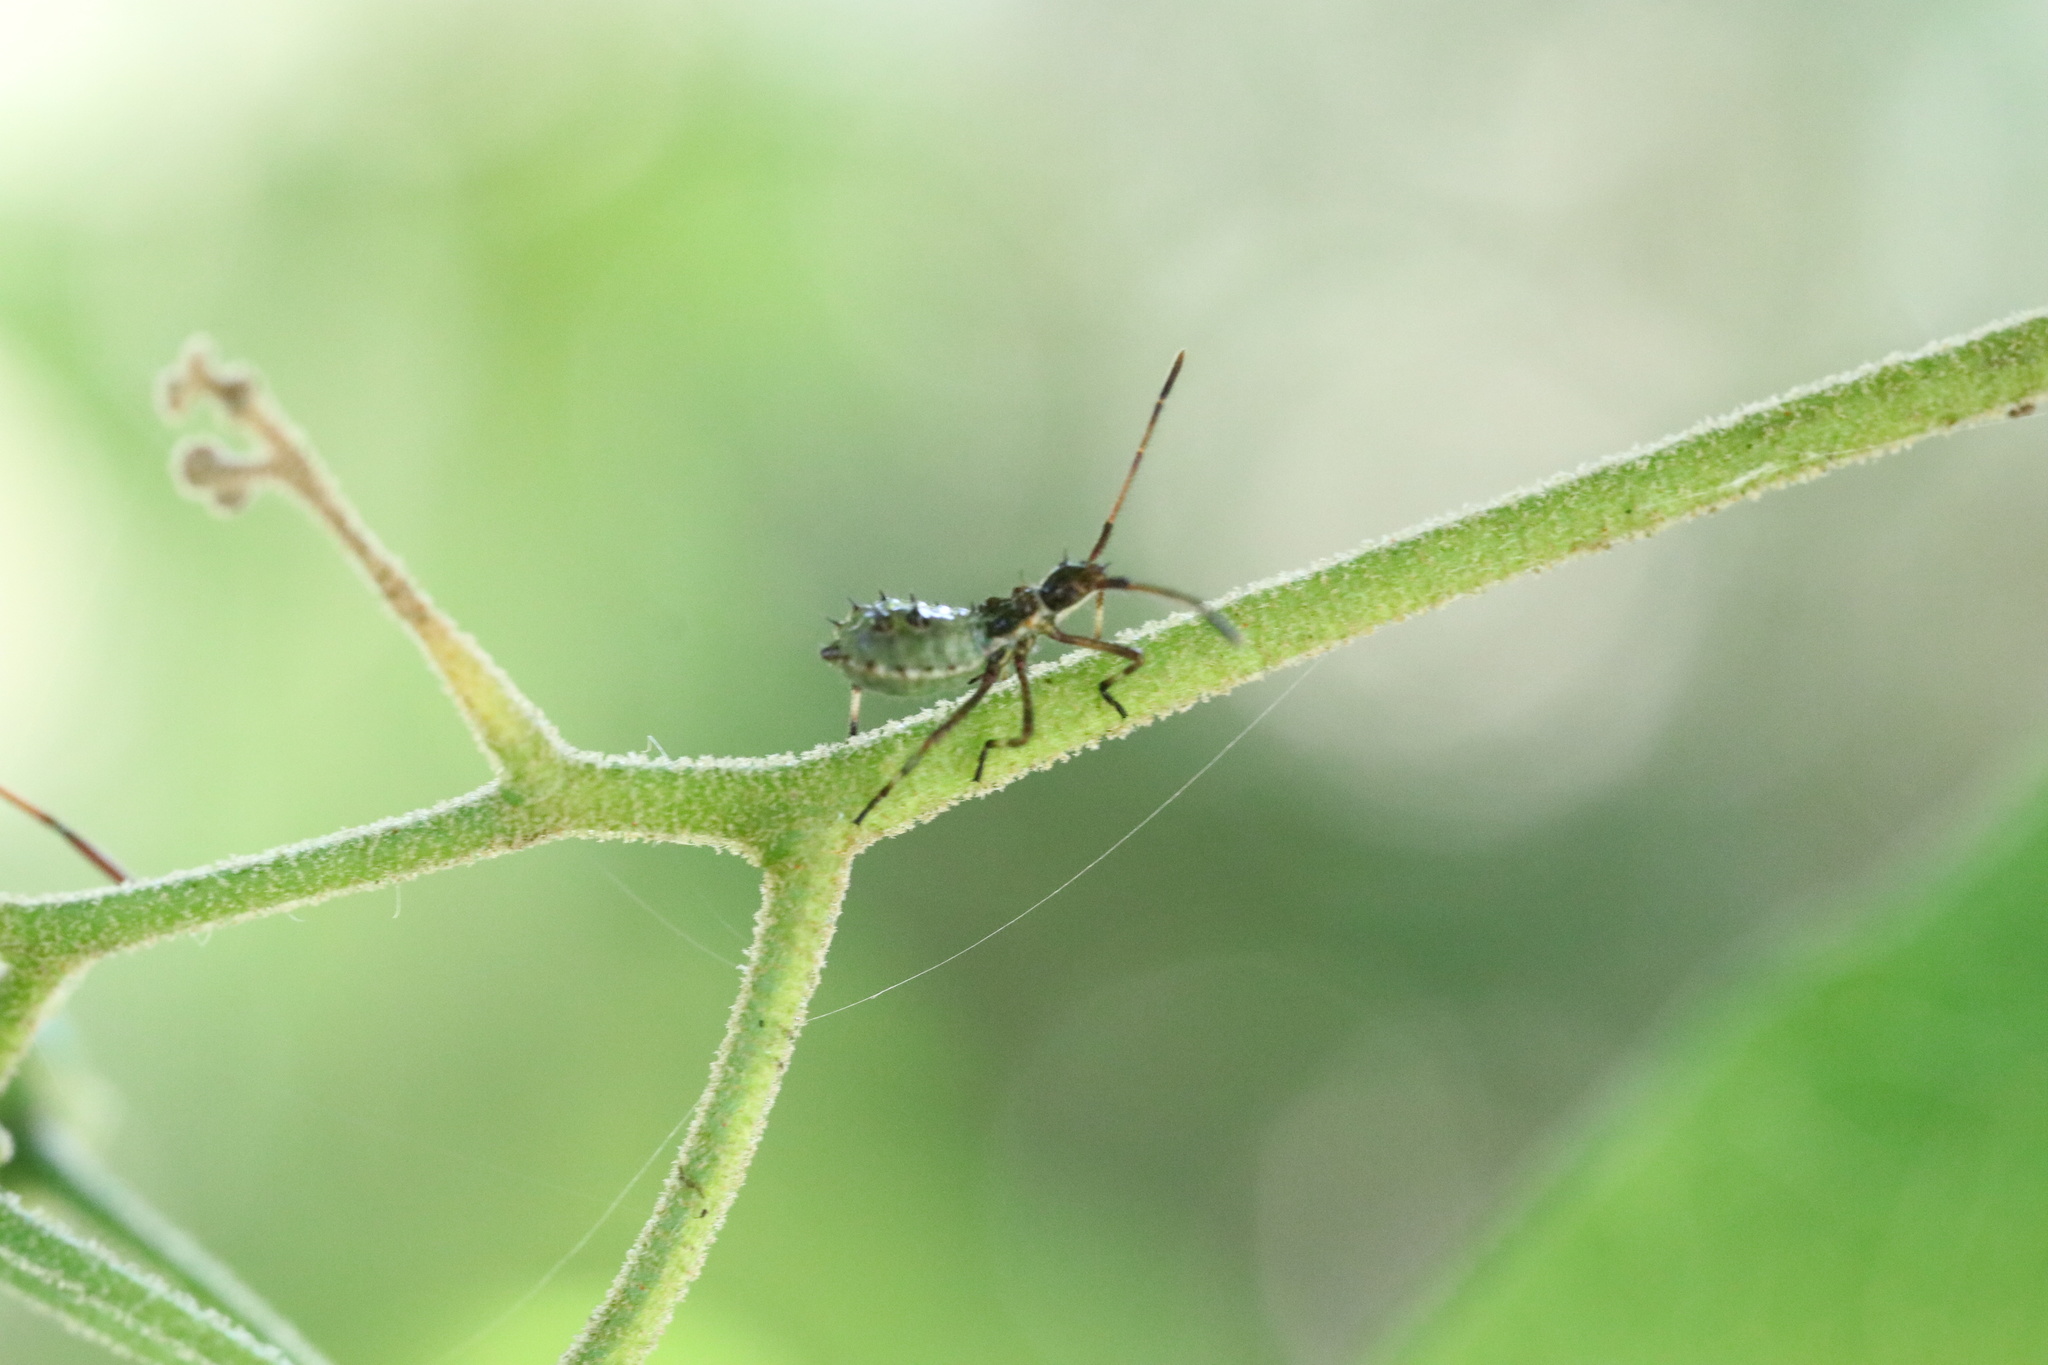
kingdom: Animalia
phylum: Arthropoda
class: Insecta
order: Hemiptera
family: Coreidae
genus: Leptoglossus
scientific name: Leptoglossus chilensis
